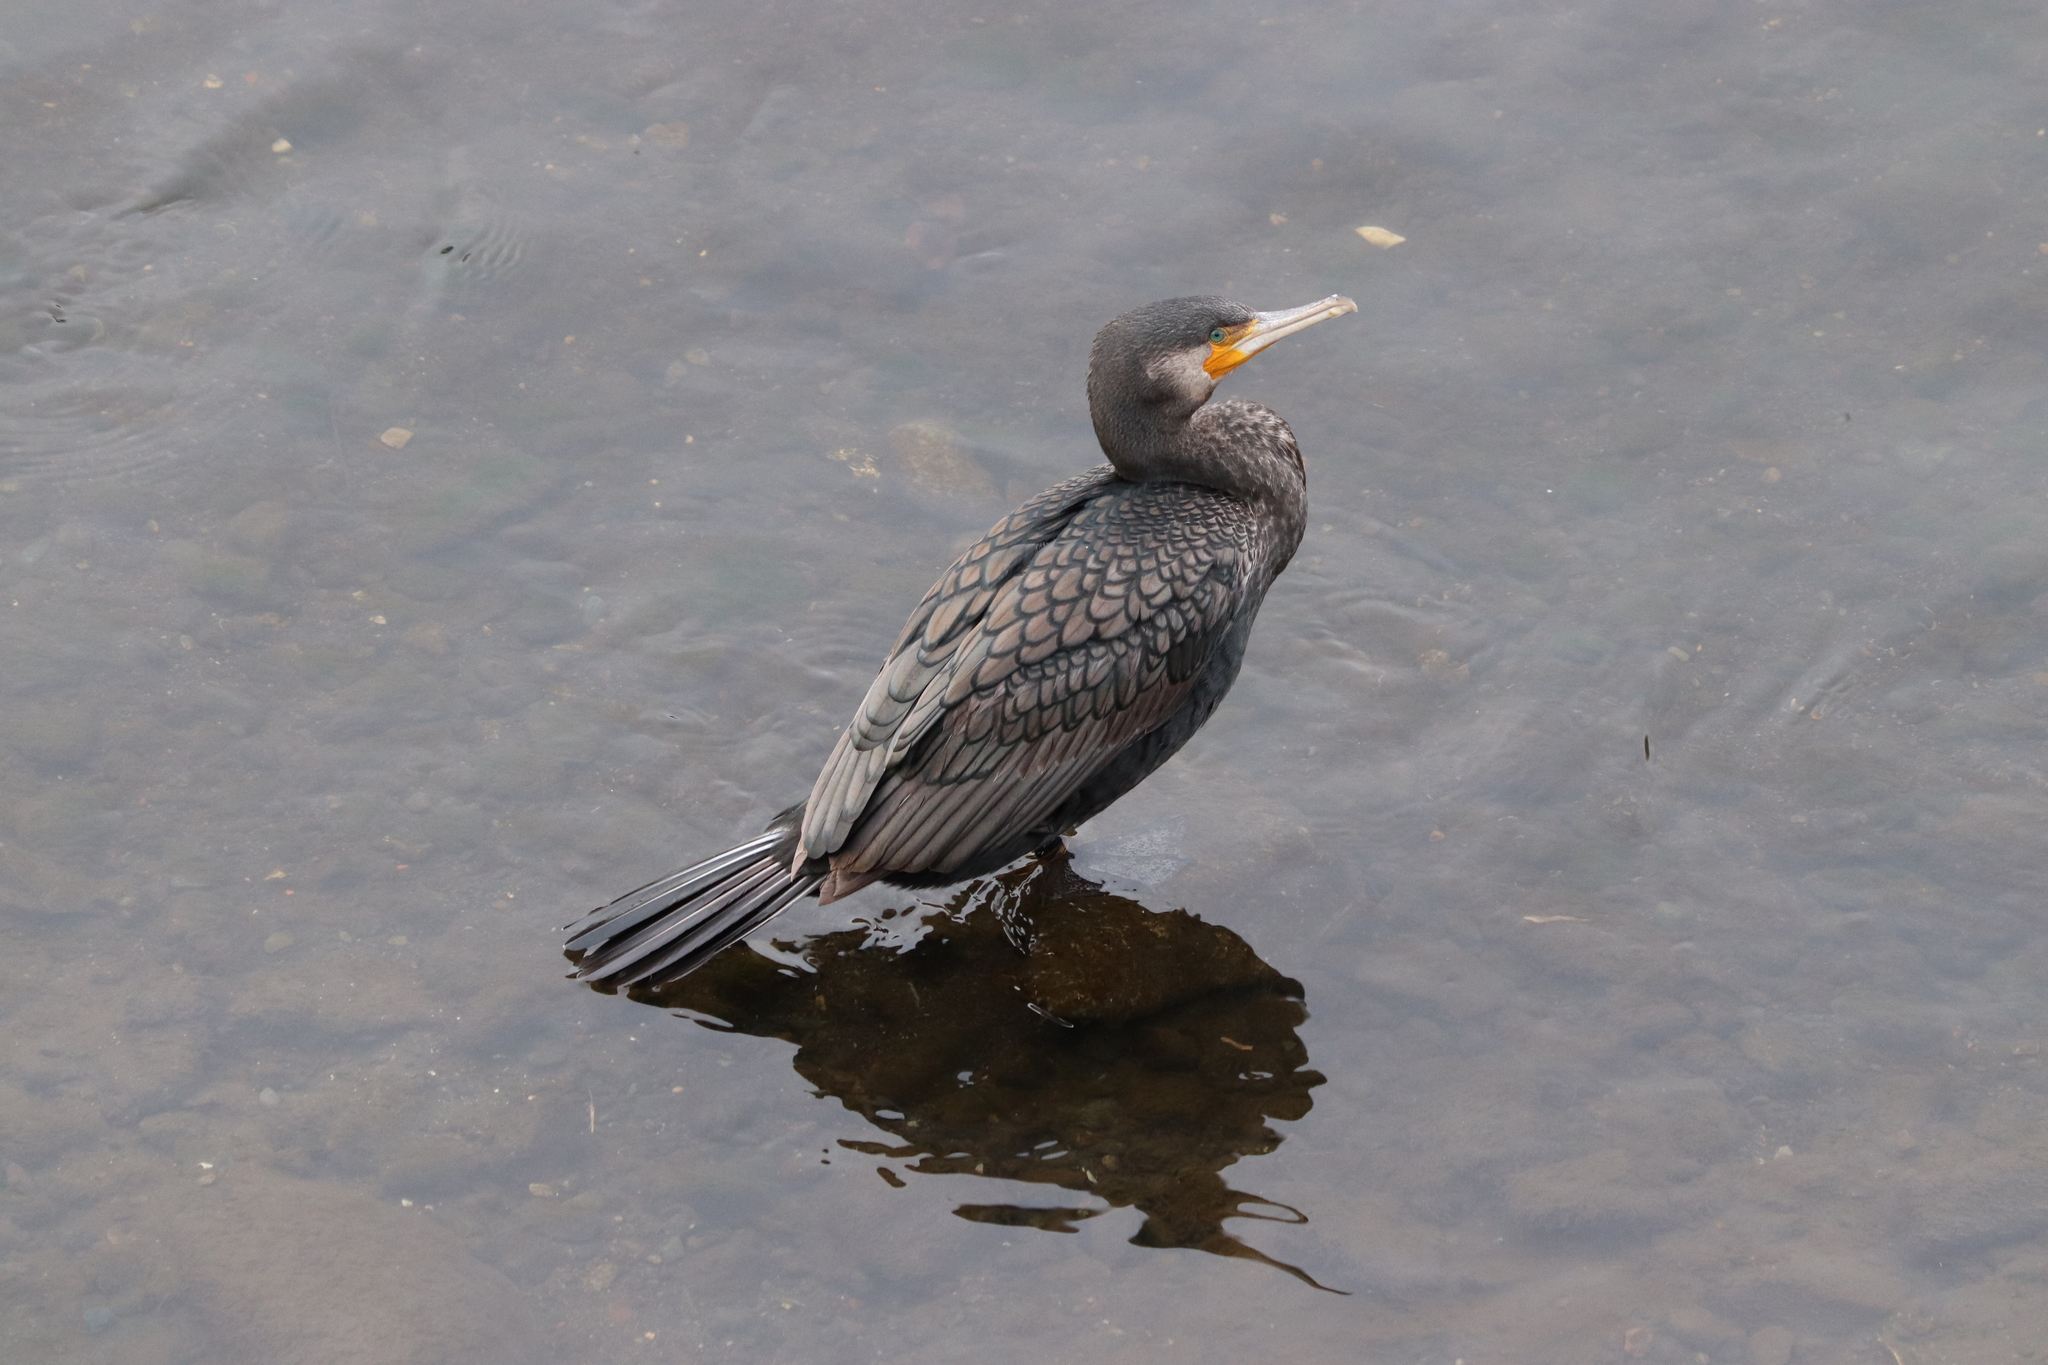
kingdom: Animalia
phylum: Chordata
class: Aves
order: Suliformes
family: Phalacrocoracidae
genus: Phalacrocorax
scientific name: Phalacrocorax carbo
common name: Great cormorant
